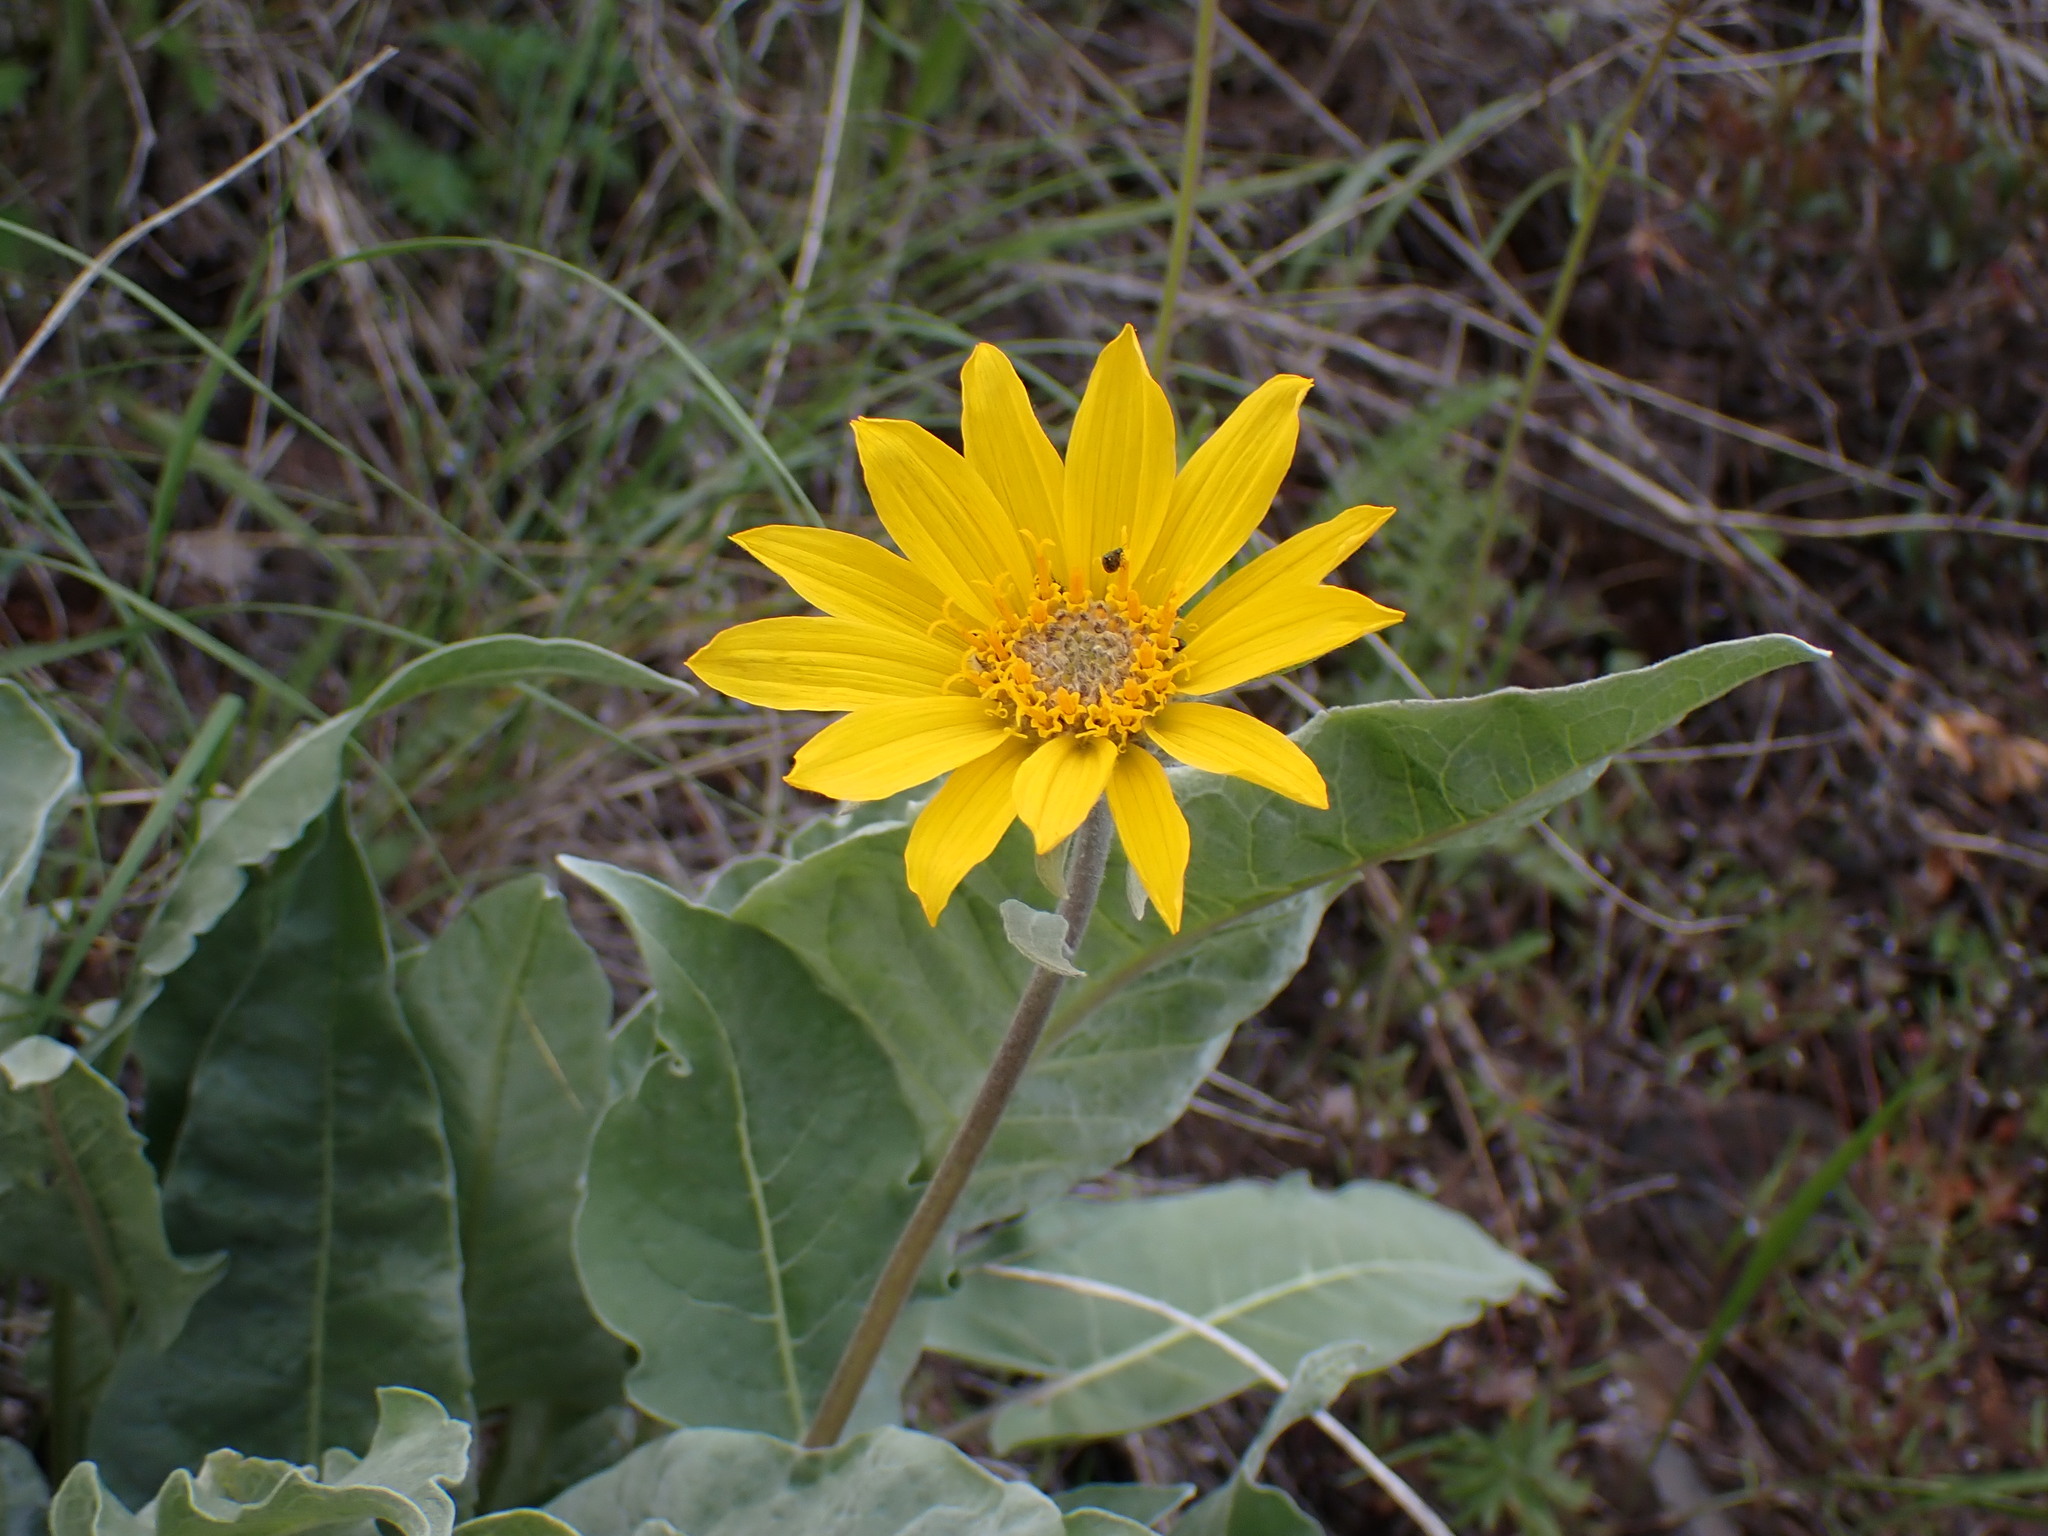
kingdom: Plantae
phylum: Tracheophyta
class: Magnoliopsida
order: Asterales
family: Asteraceae
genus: Wyethia
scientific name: Wyethia sagittata
